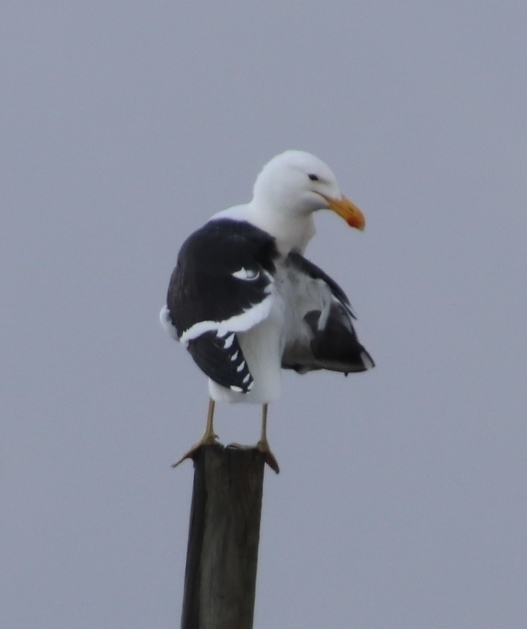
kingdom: Animalia
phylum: Chordata
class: Aves
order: Charadriiformes
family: Laridae
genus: Larus
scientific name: Larus dominicanus
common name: Kelp gull
